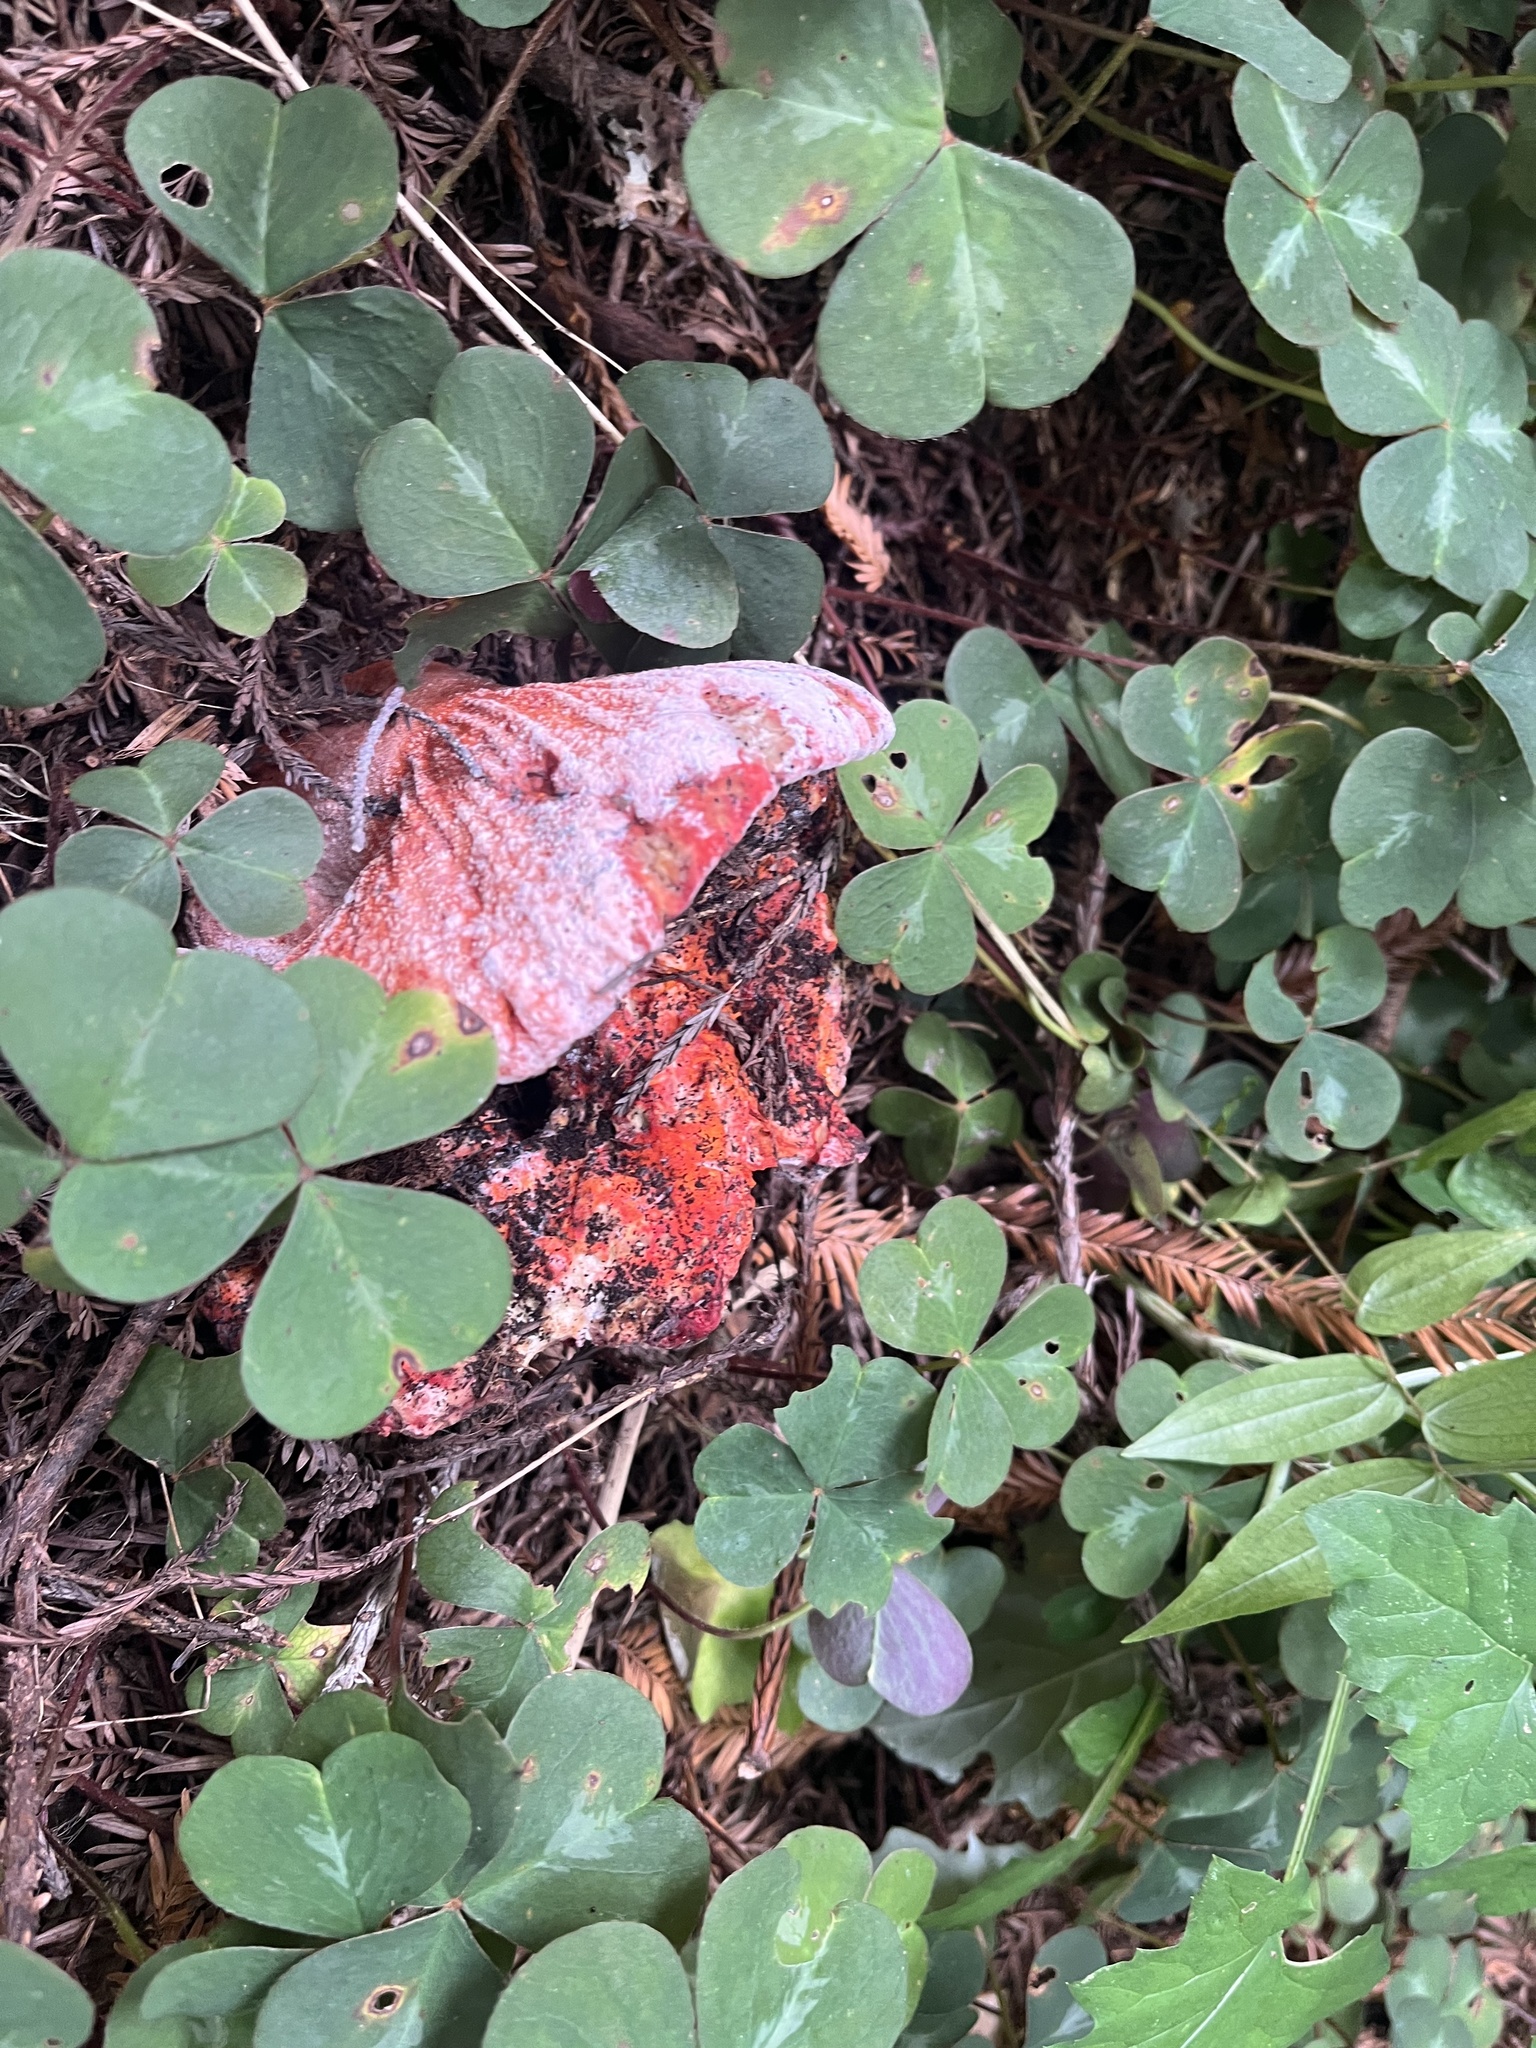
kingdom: Fungi
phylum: Ascomycota
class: Sordariomycetes
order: Hypocreales
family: Hypocreaceae
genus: Hypomyces
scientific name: Hypomyces lactifluorum
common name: Lobster mushroom
